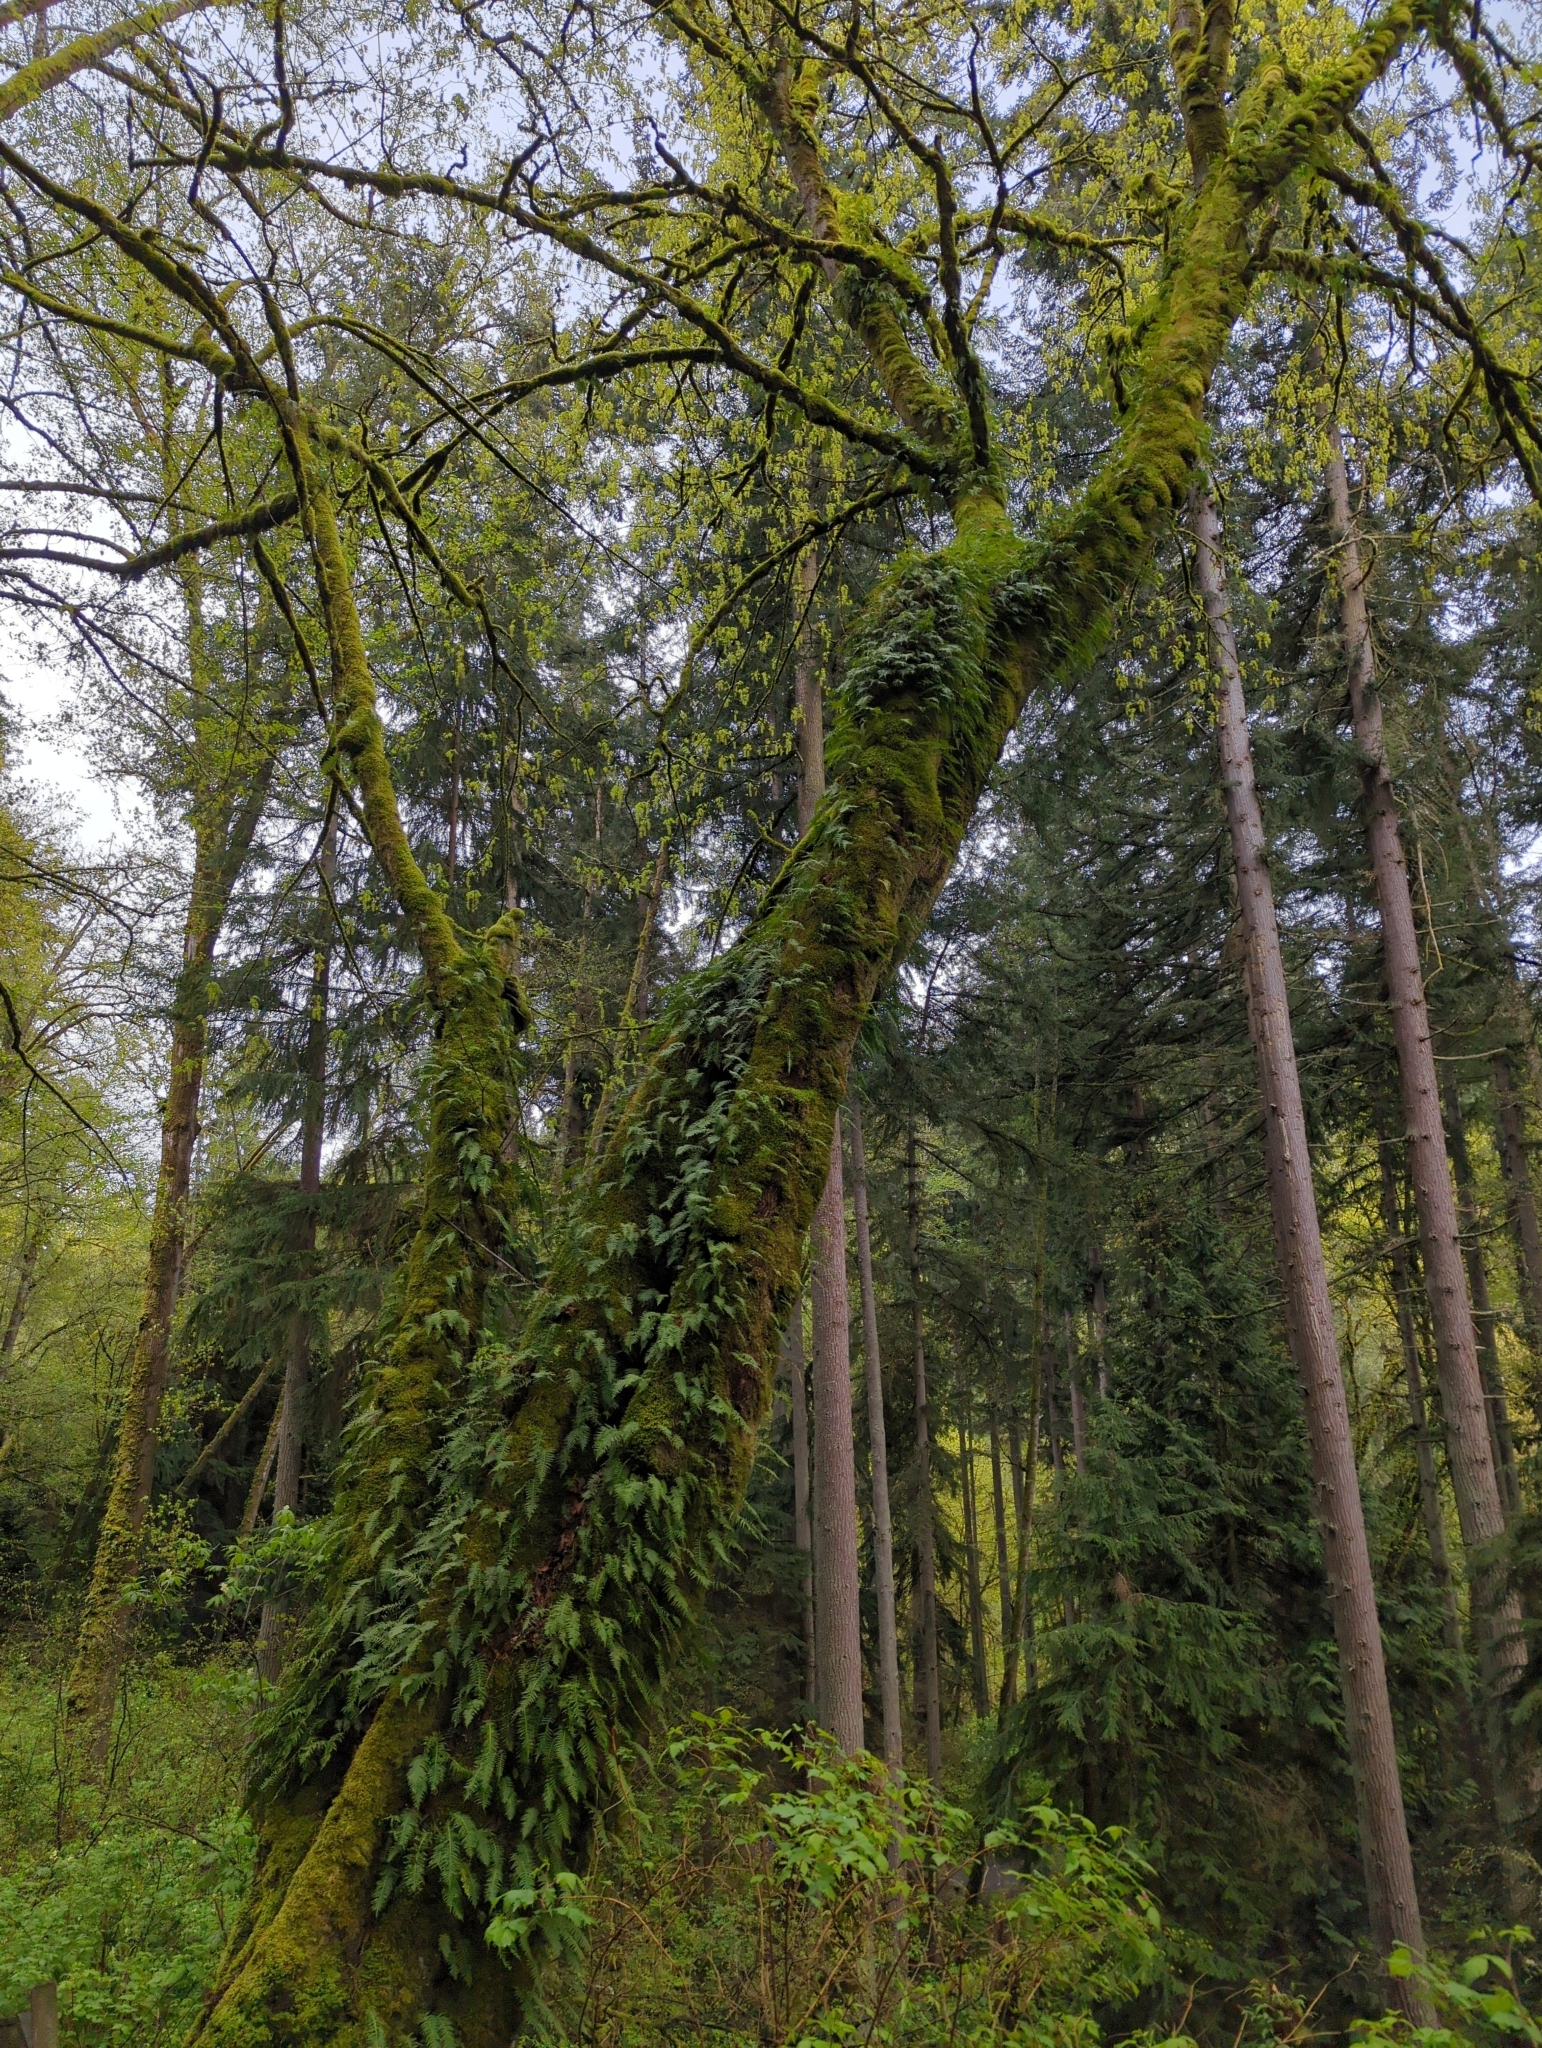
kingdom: Plantae
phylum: Tracheophyta
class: Polypodiopsida
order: Polypodiales
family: Polypodiaceae
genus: Polypodium
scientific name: Polypodium glycyrrhiza
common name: Licorice fern
